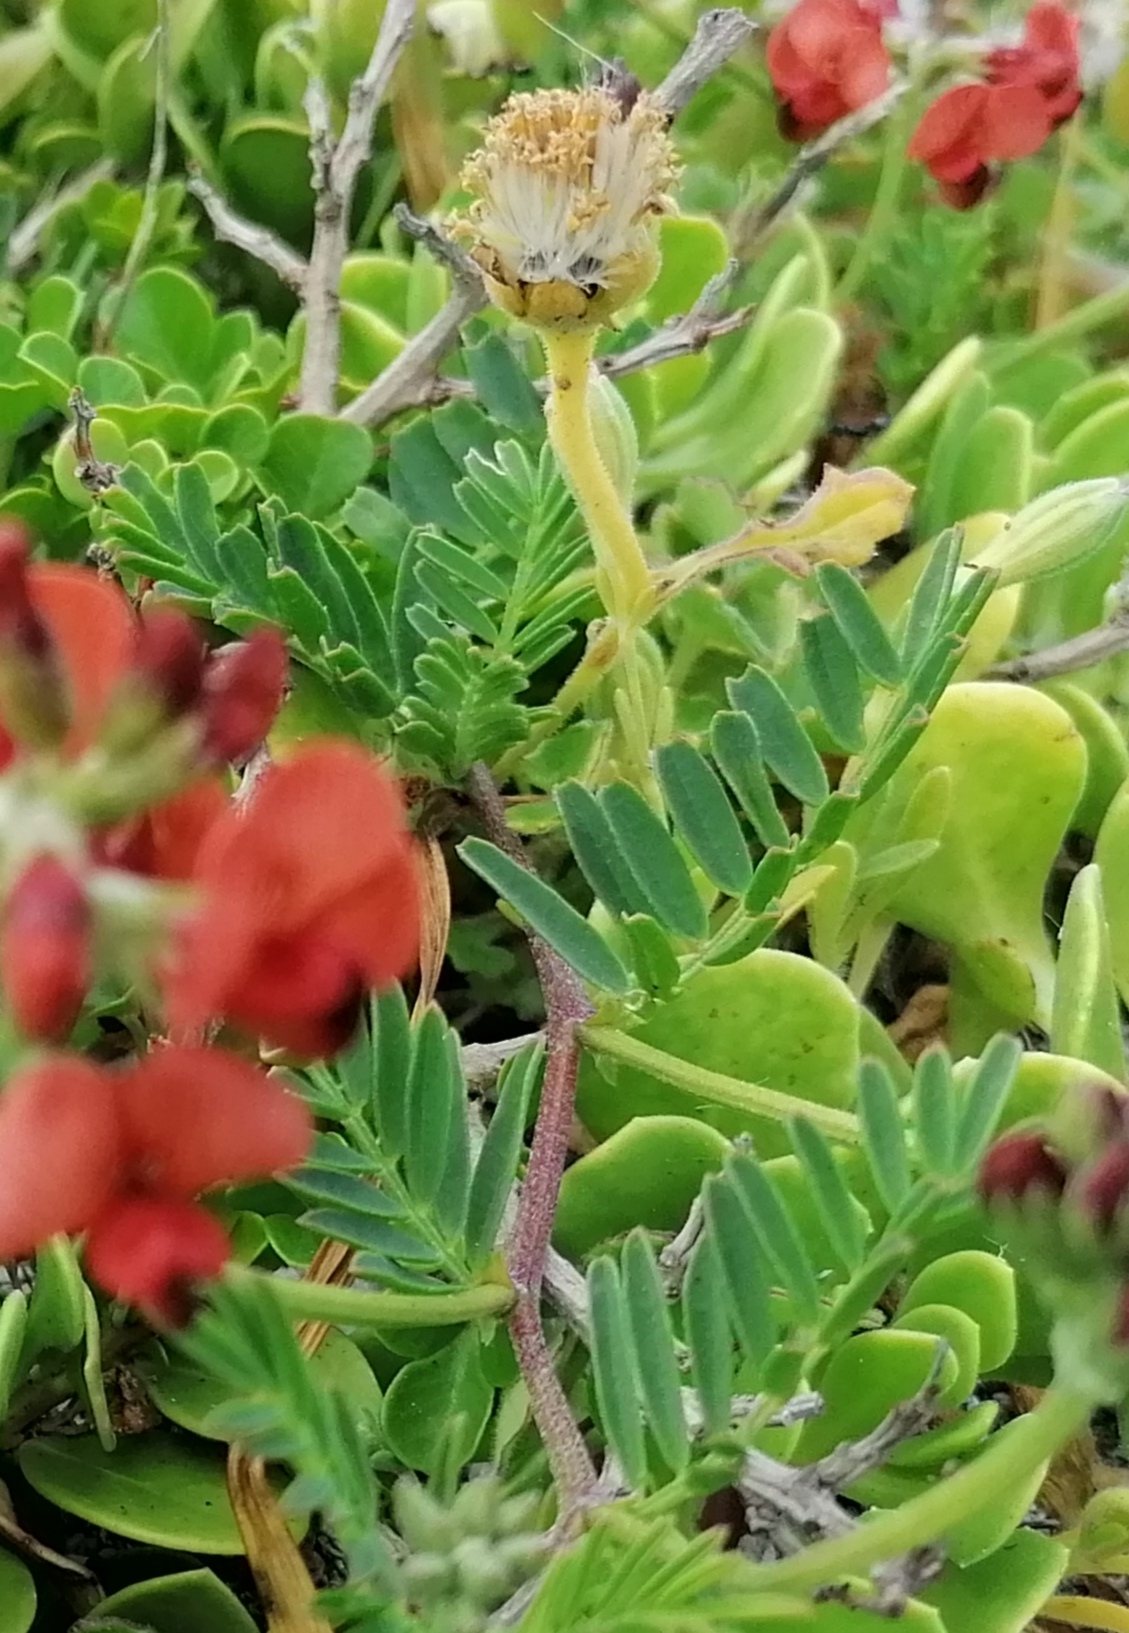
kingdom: Plantae
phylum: Tracheophyta
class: Magnoliopsida
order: Fabales
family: Fabaceae
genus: Lessertia
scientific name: Lessertia miniata
